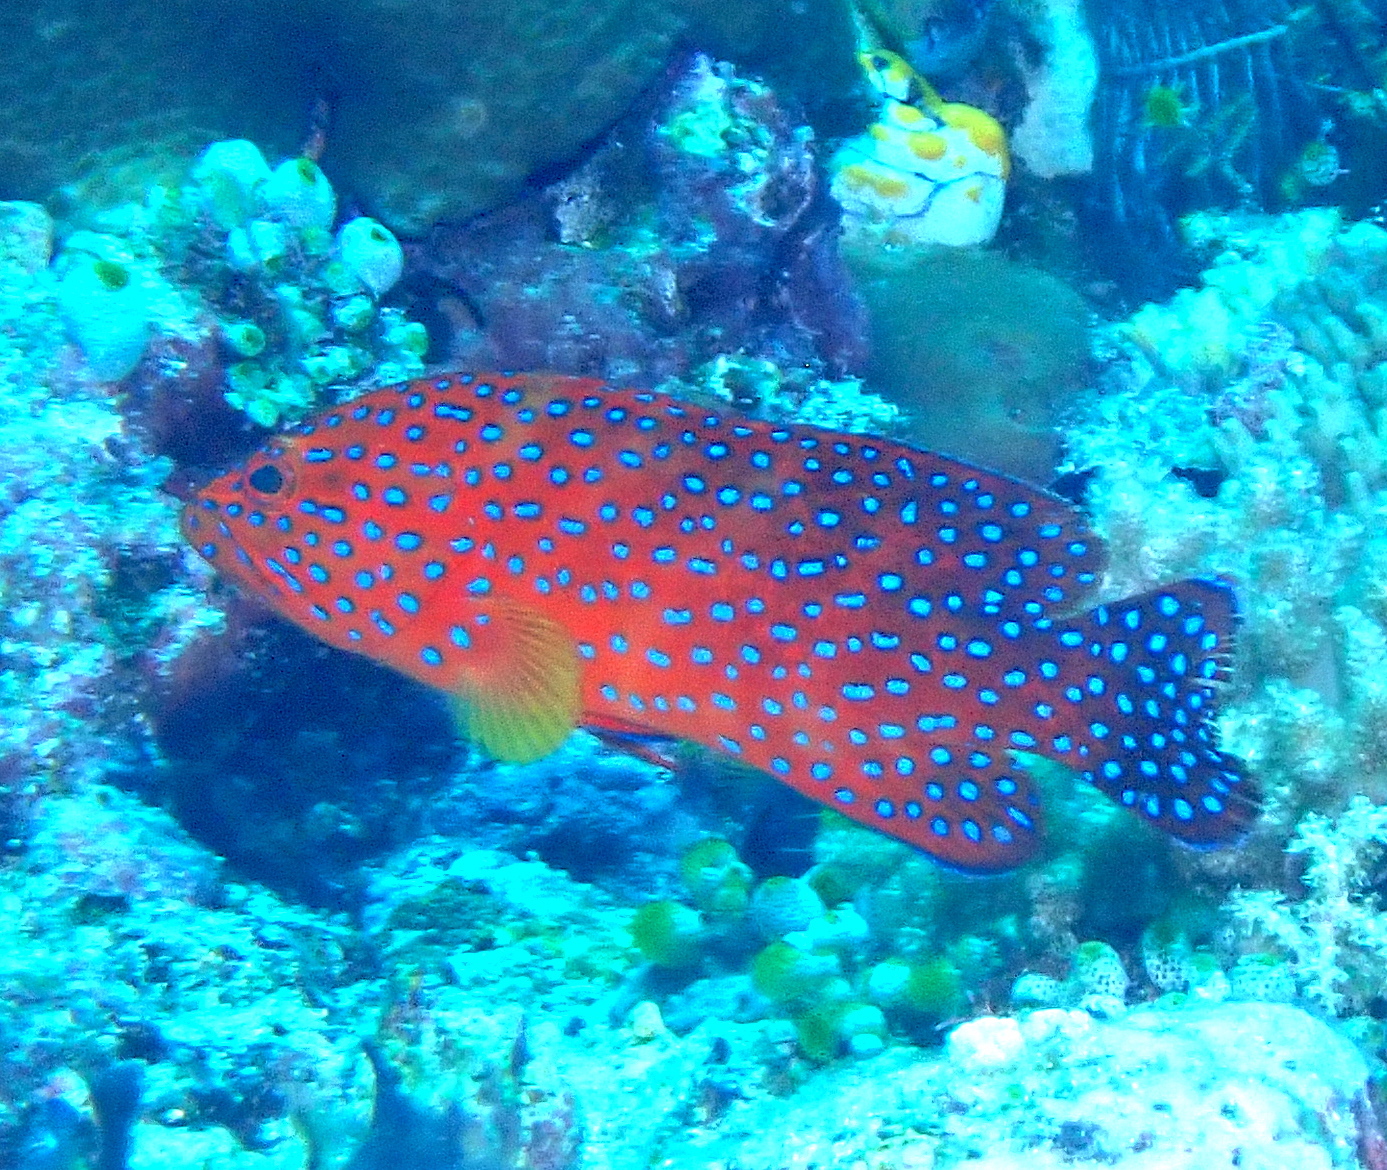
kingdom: Animalia
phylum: Chordata
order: Perciformes
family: Serranidae
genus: Cephalopholis
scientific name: Cephalopholis miniata
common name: Coral hind
